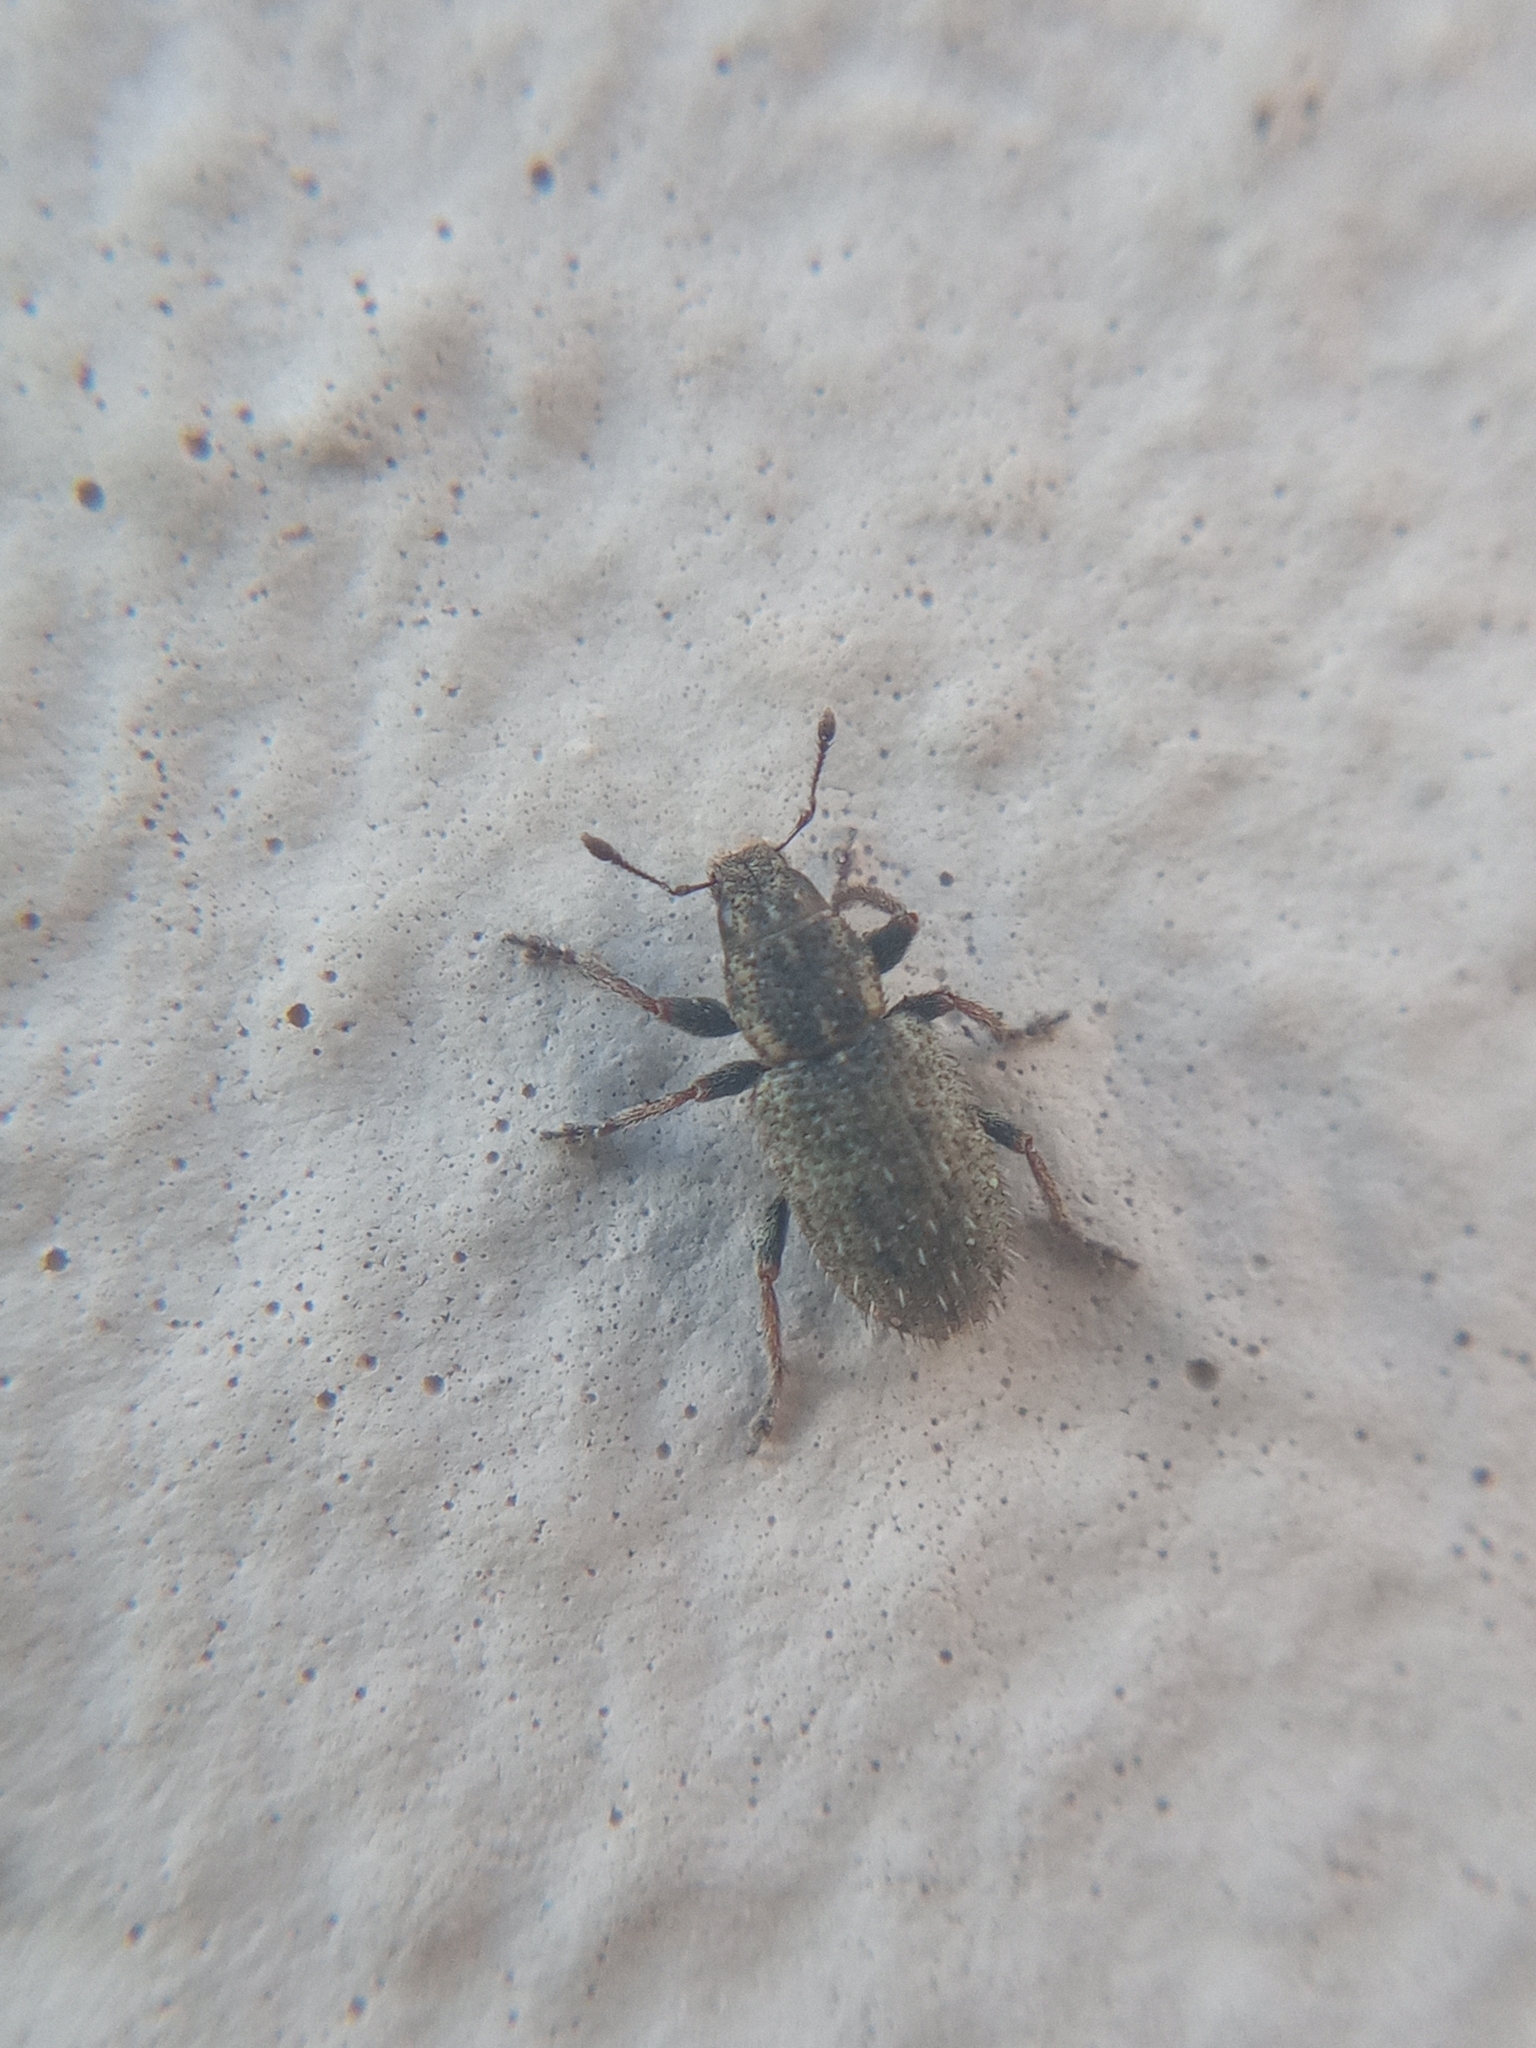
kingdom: Animalia
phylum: Arthropoda
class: Insecta
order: Coleoptera
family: Curculionidae
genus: Sitona
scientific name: Sitona hispidulus
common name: Clover weevil
